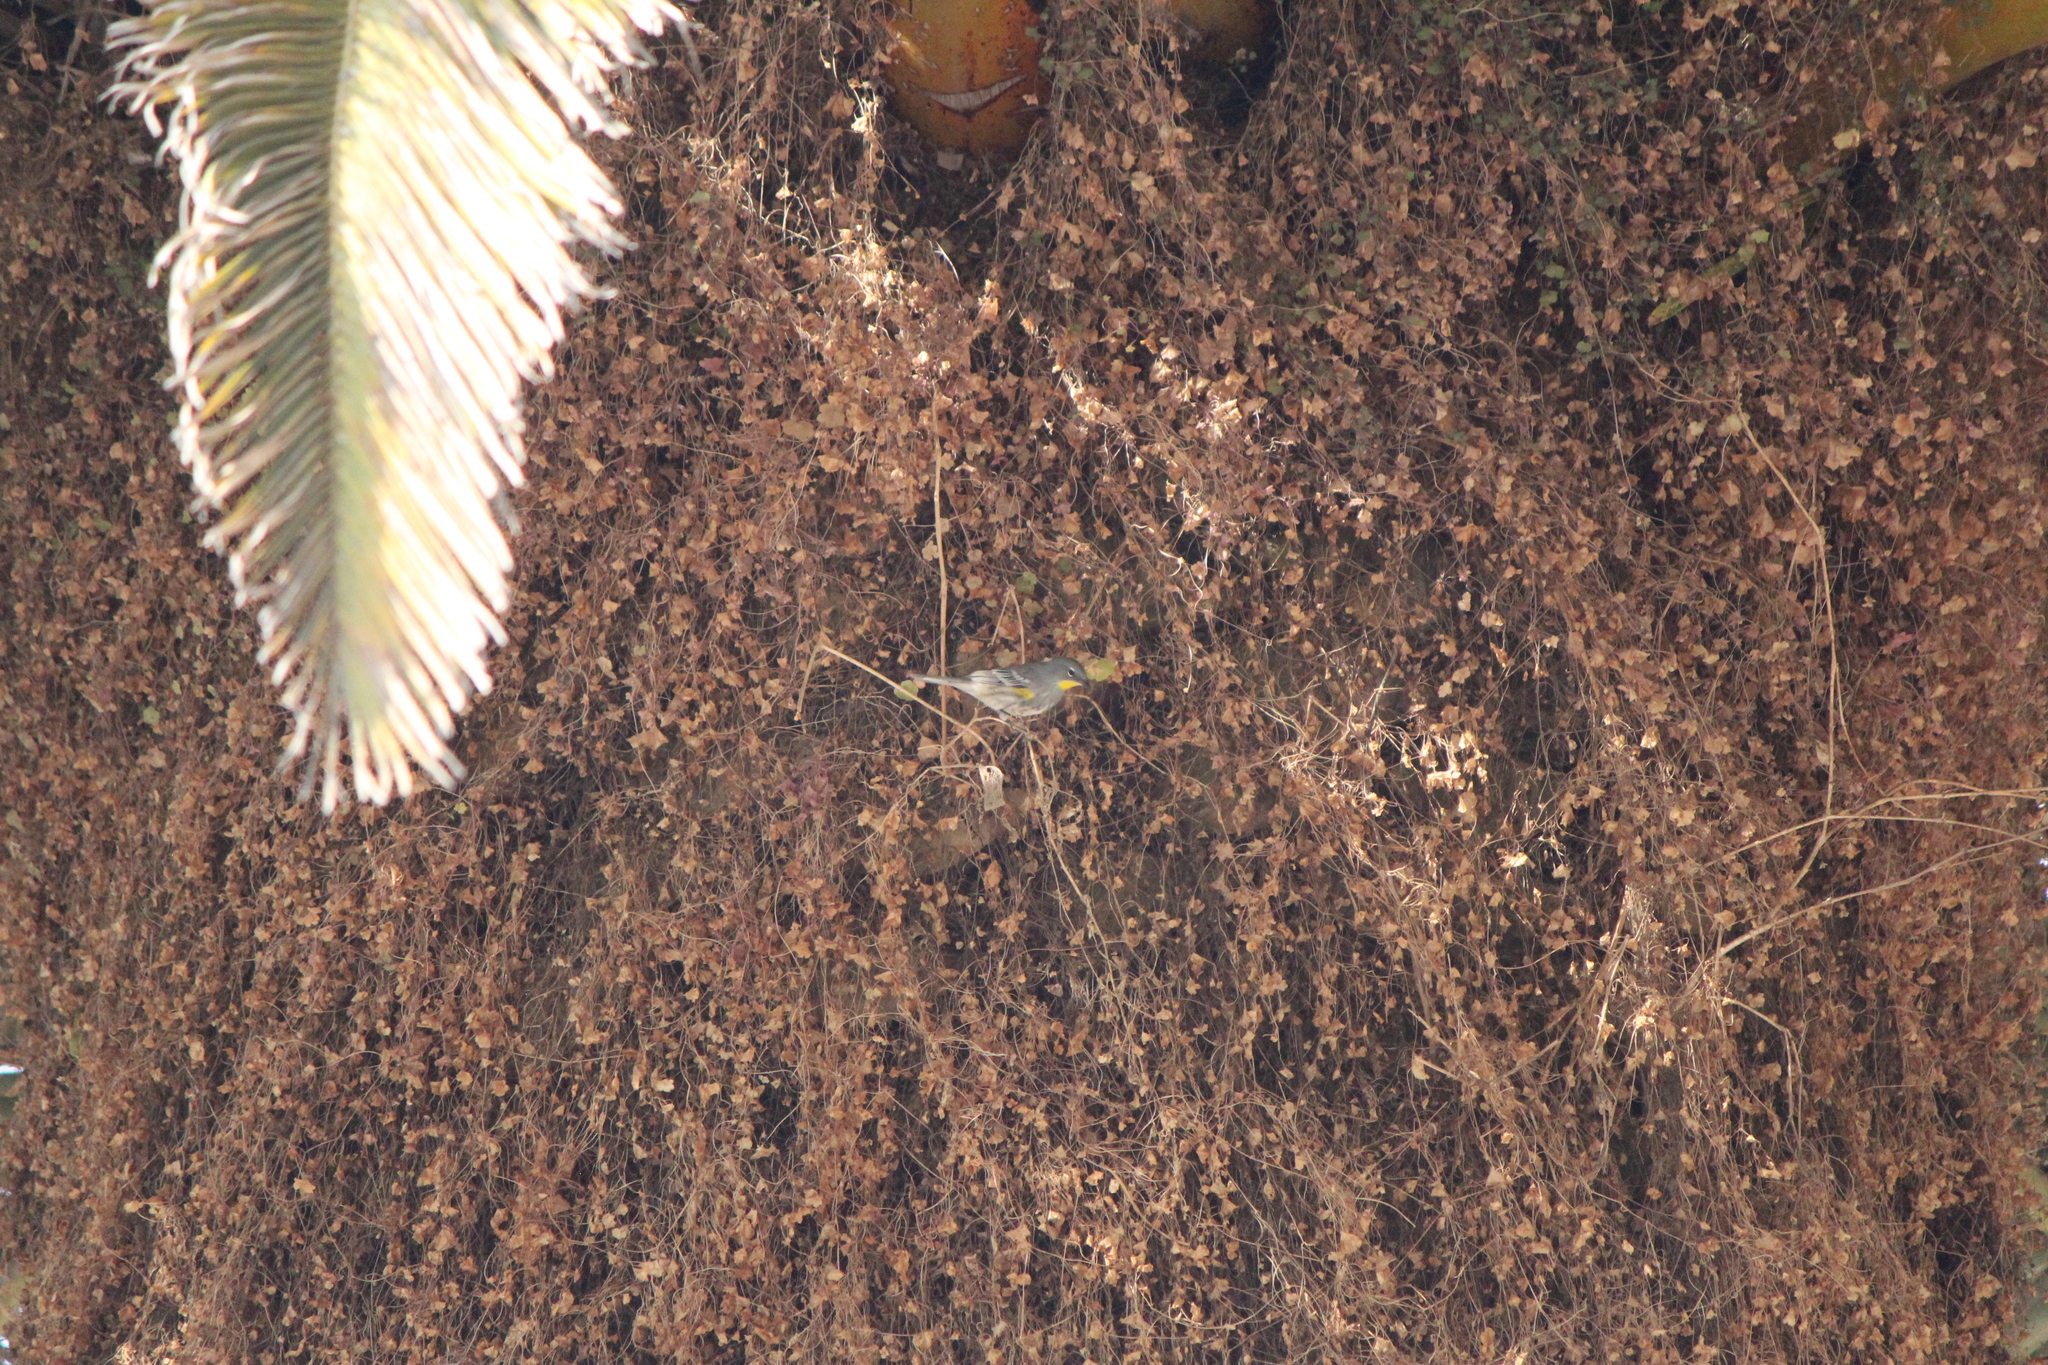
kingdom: Animalia
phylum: Chordata
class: Aves
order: Passeriformes
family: Parulidae
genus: Setophaga
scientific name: Setophaga auduboni
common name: Audubon's warbler
